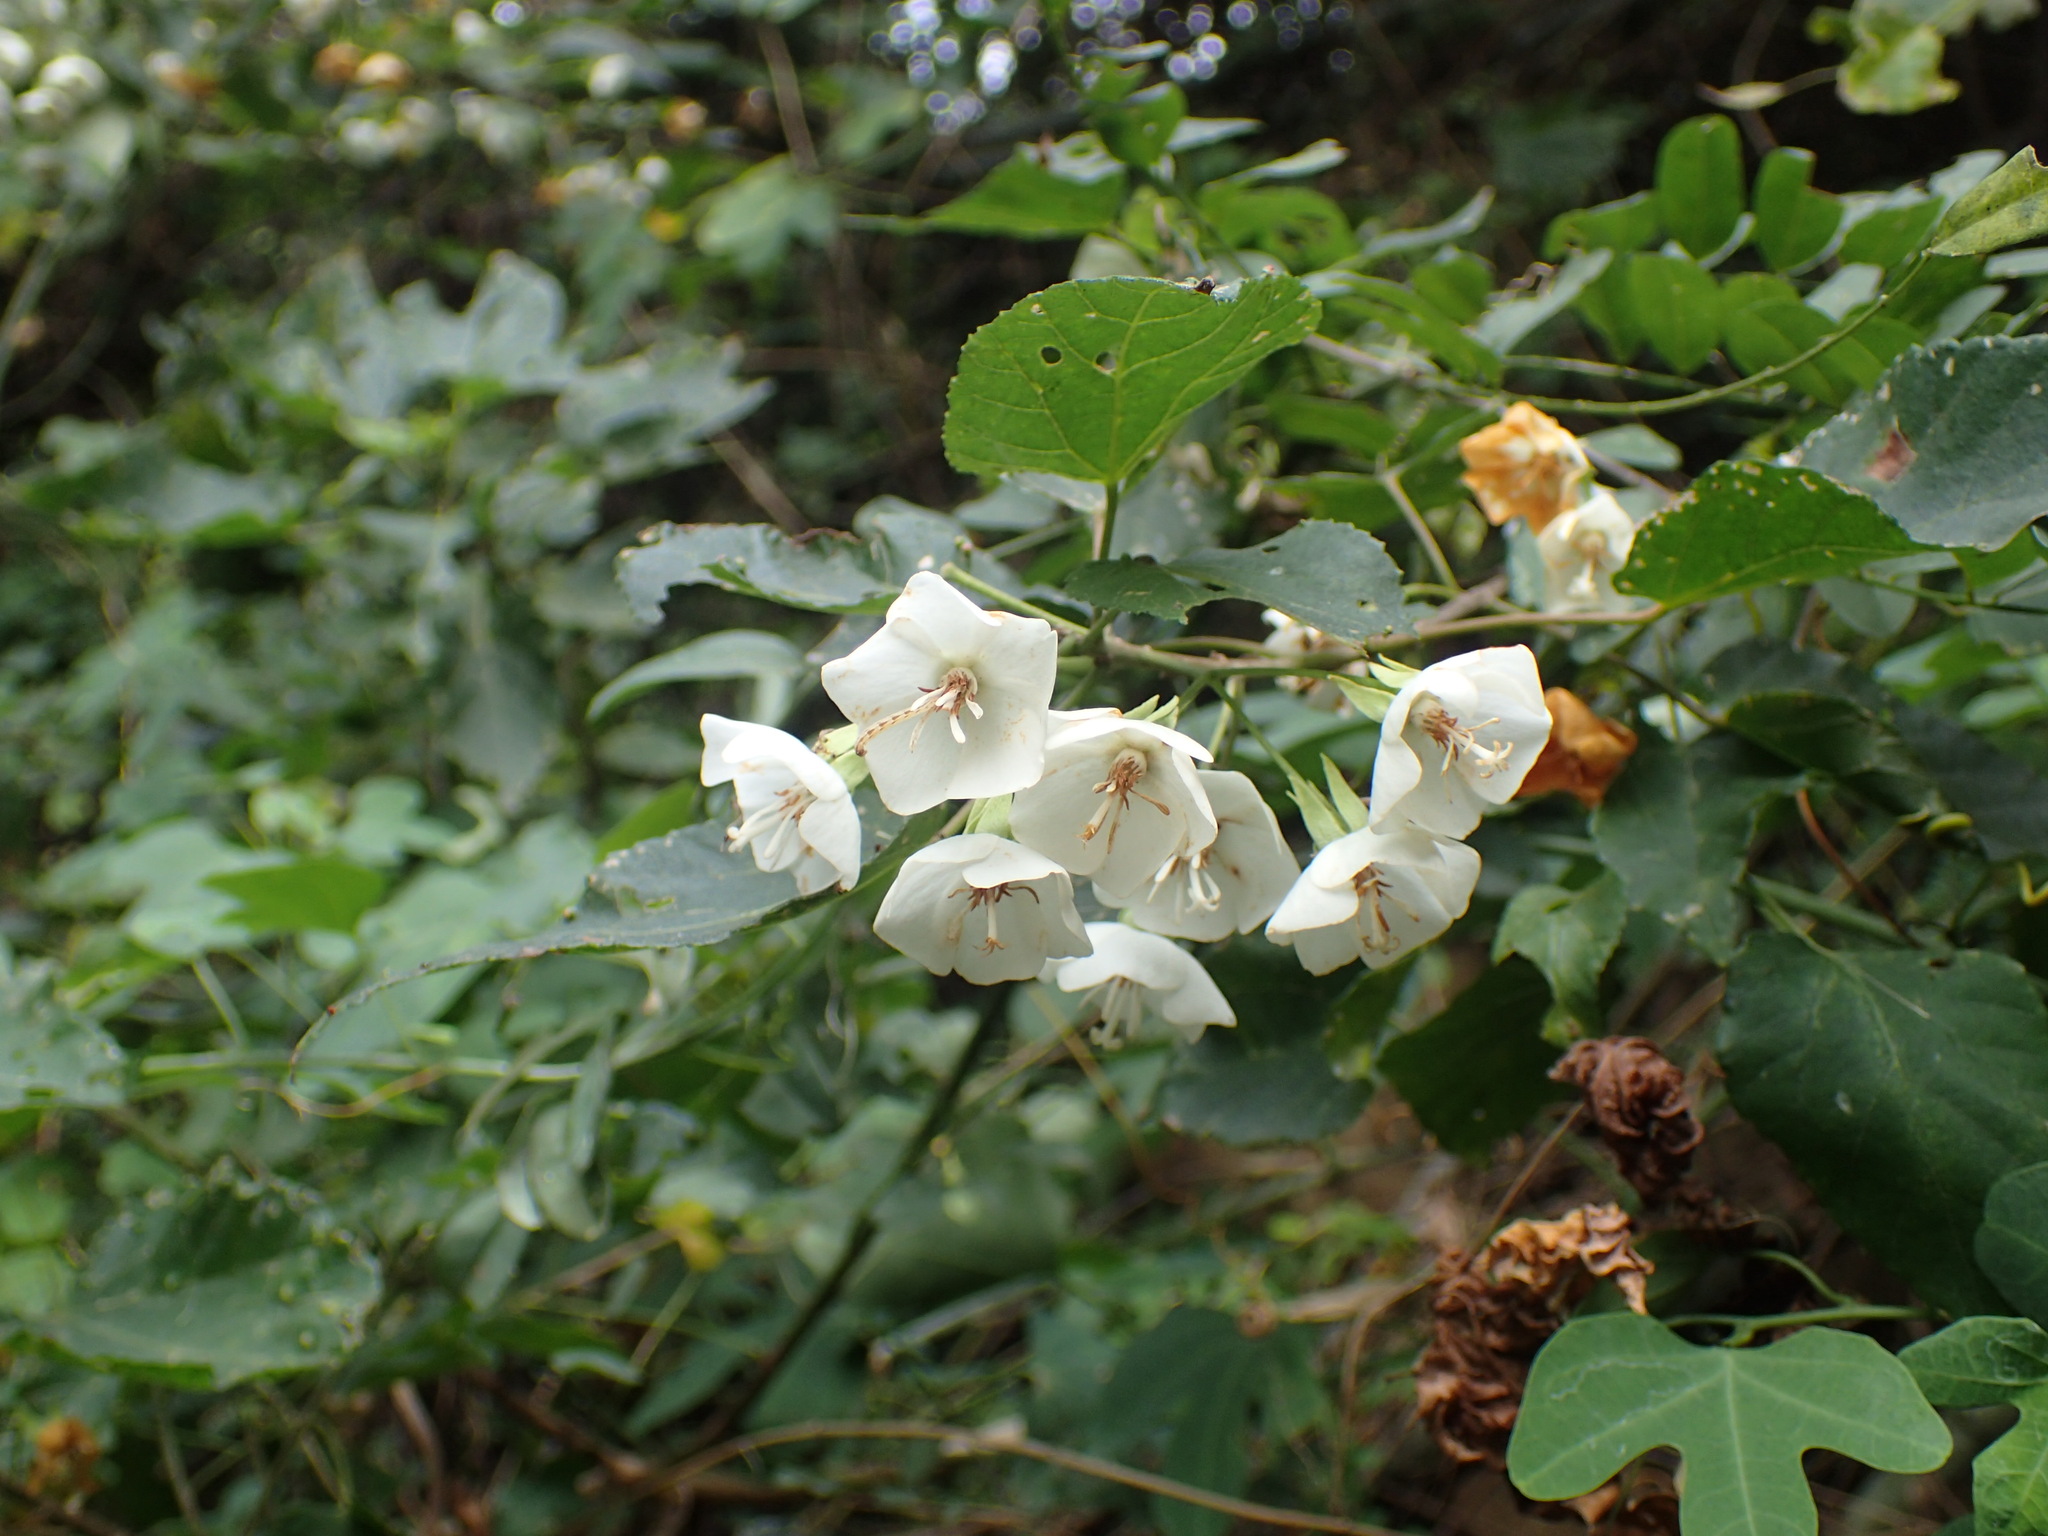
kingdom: Plantae
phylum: Tracheophyta
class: Magnoliopsida
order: Malvales
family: Malvaceae
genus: Dombeya
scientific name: Dombeya tiliacea
